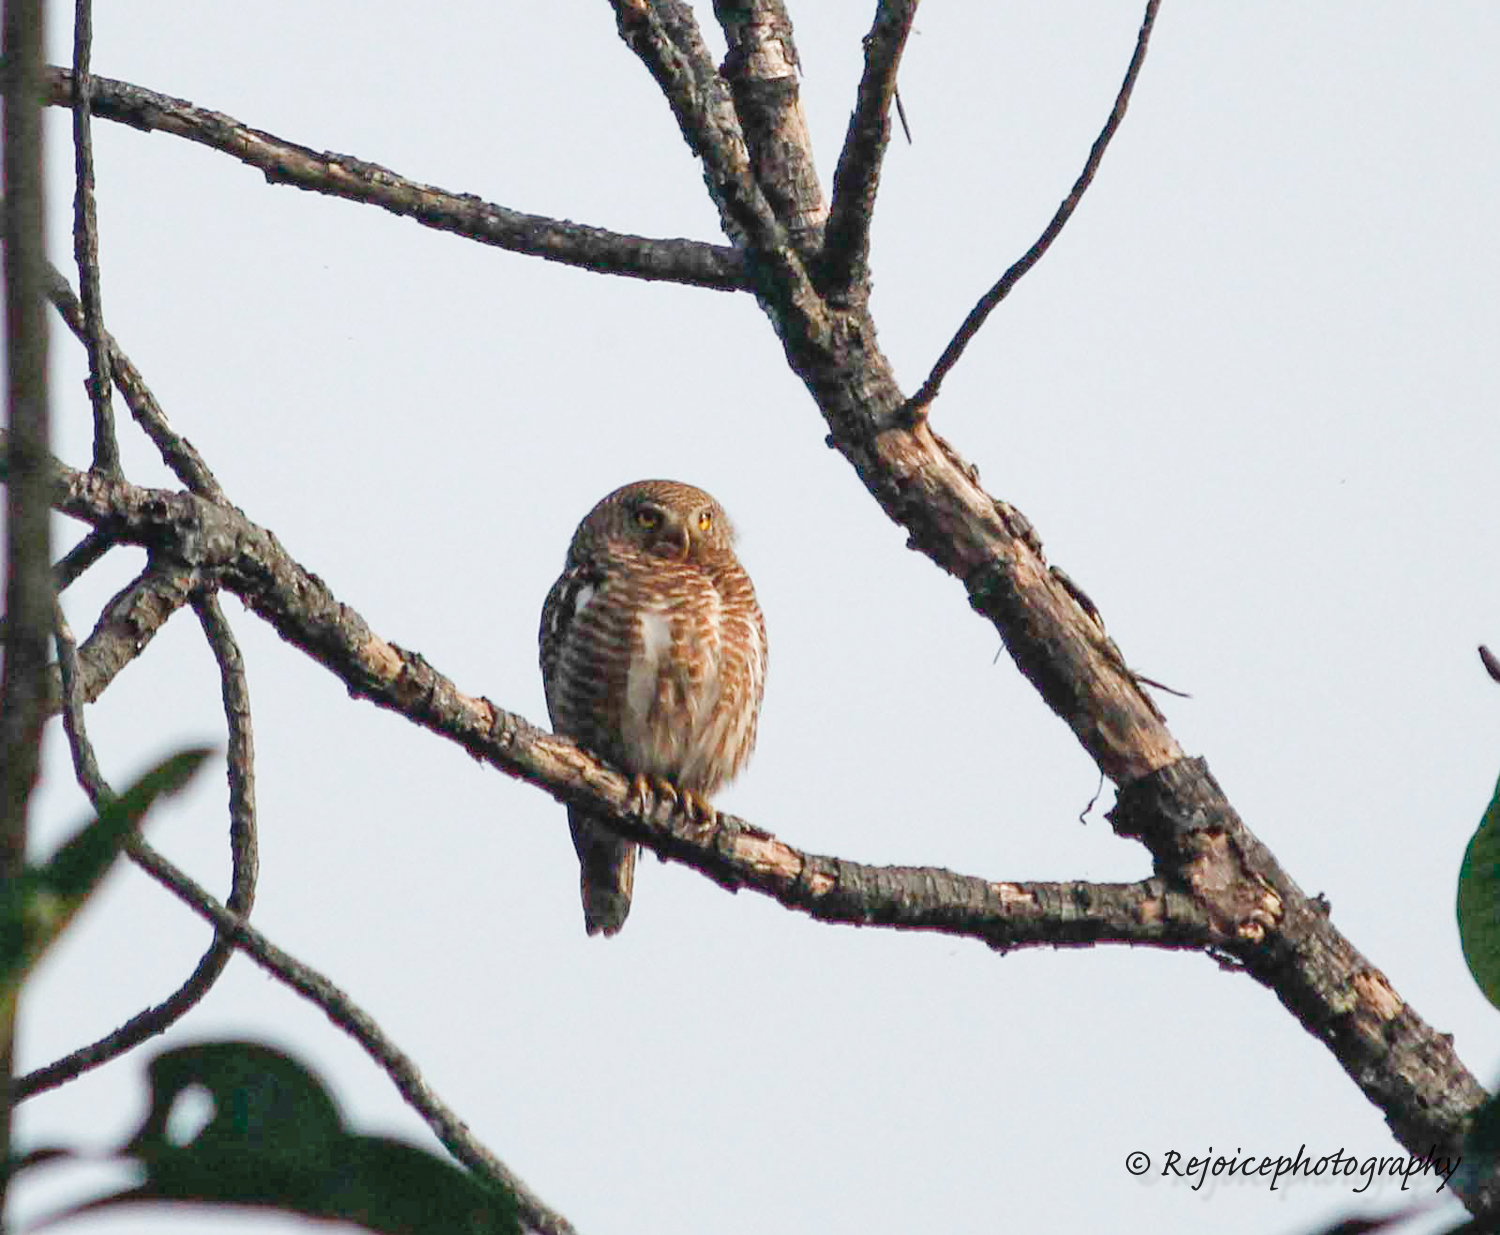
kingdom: Animalia
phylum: Chordata
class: Aves
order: Strigiformes
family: Strigidae
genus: Glaucidium
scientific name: Glaucidium cuculoides
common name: Asian barred owlet
